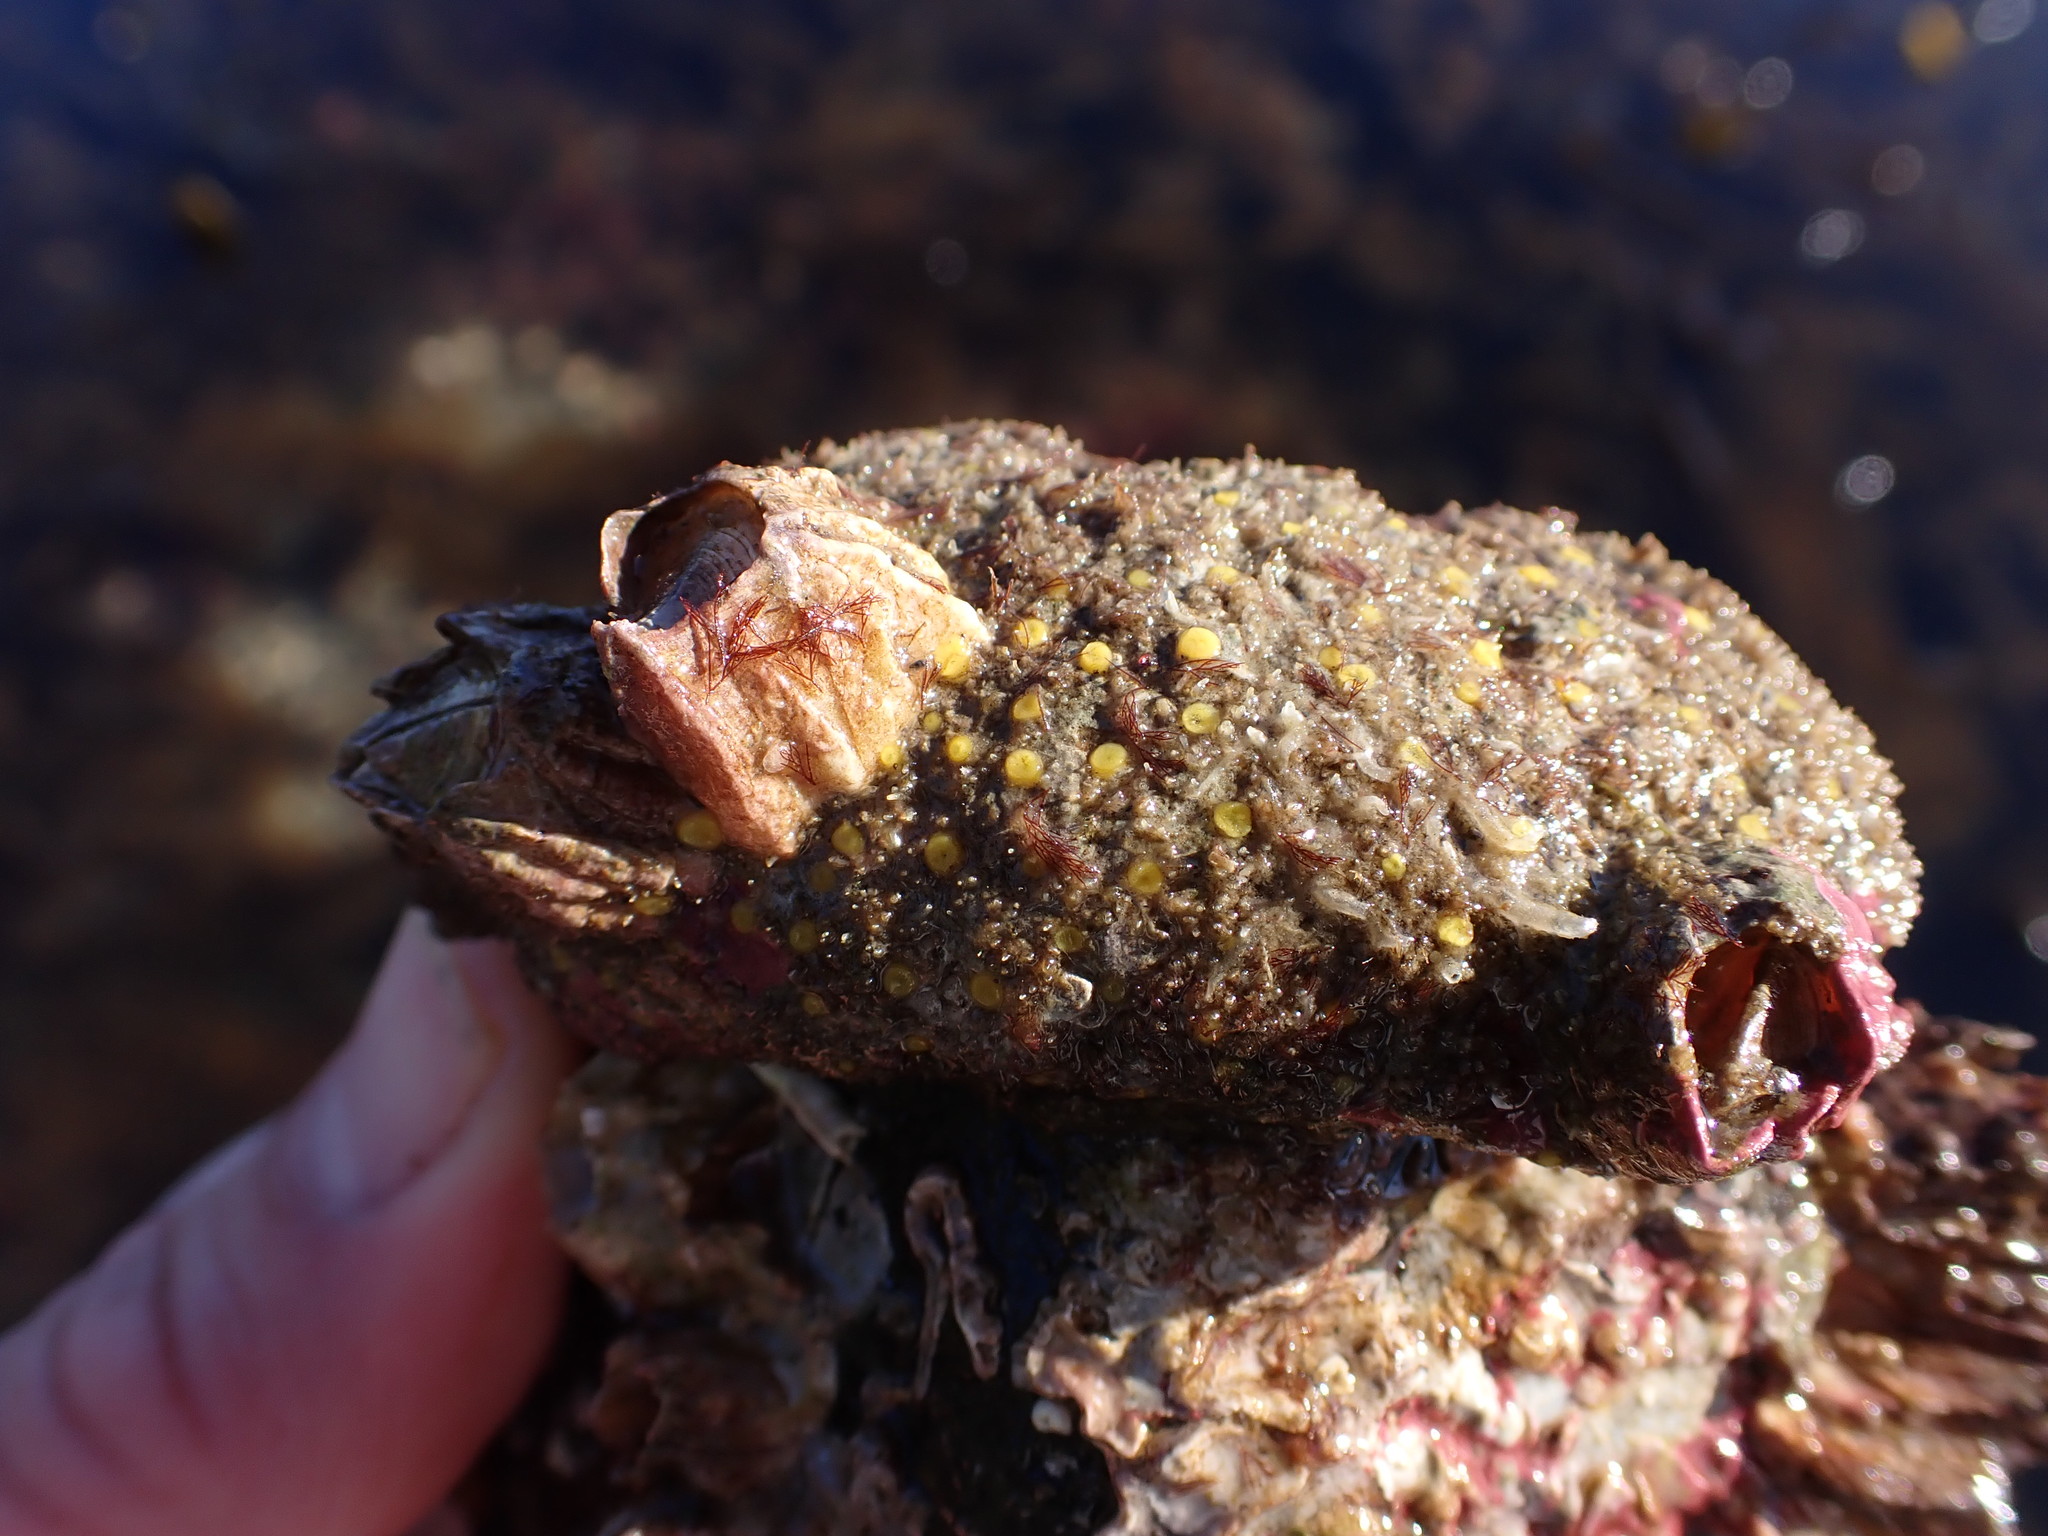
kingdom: Animalia
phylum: Porifera
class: Demospongiae
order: Clionaida
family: Clionaidae
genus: Cliona
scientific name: Cliona californiana
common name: California boring horny sponge
